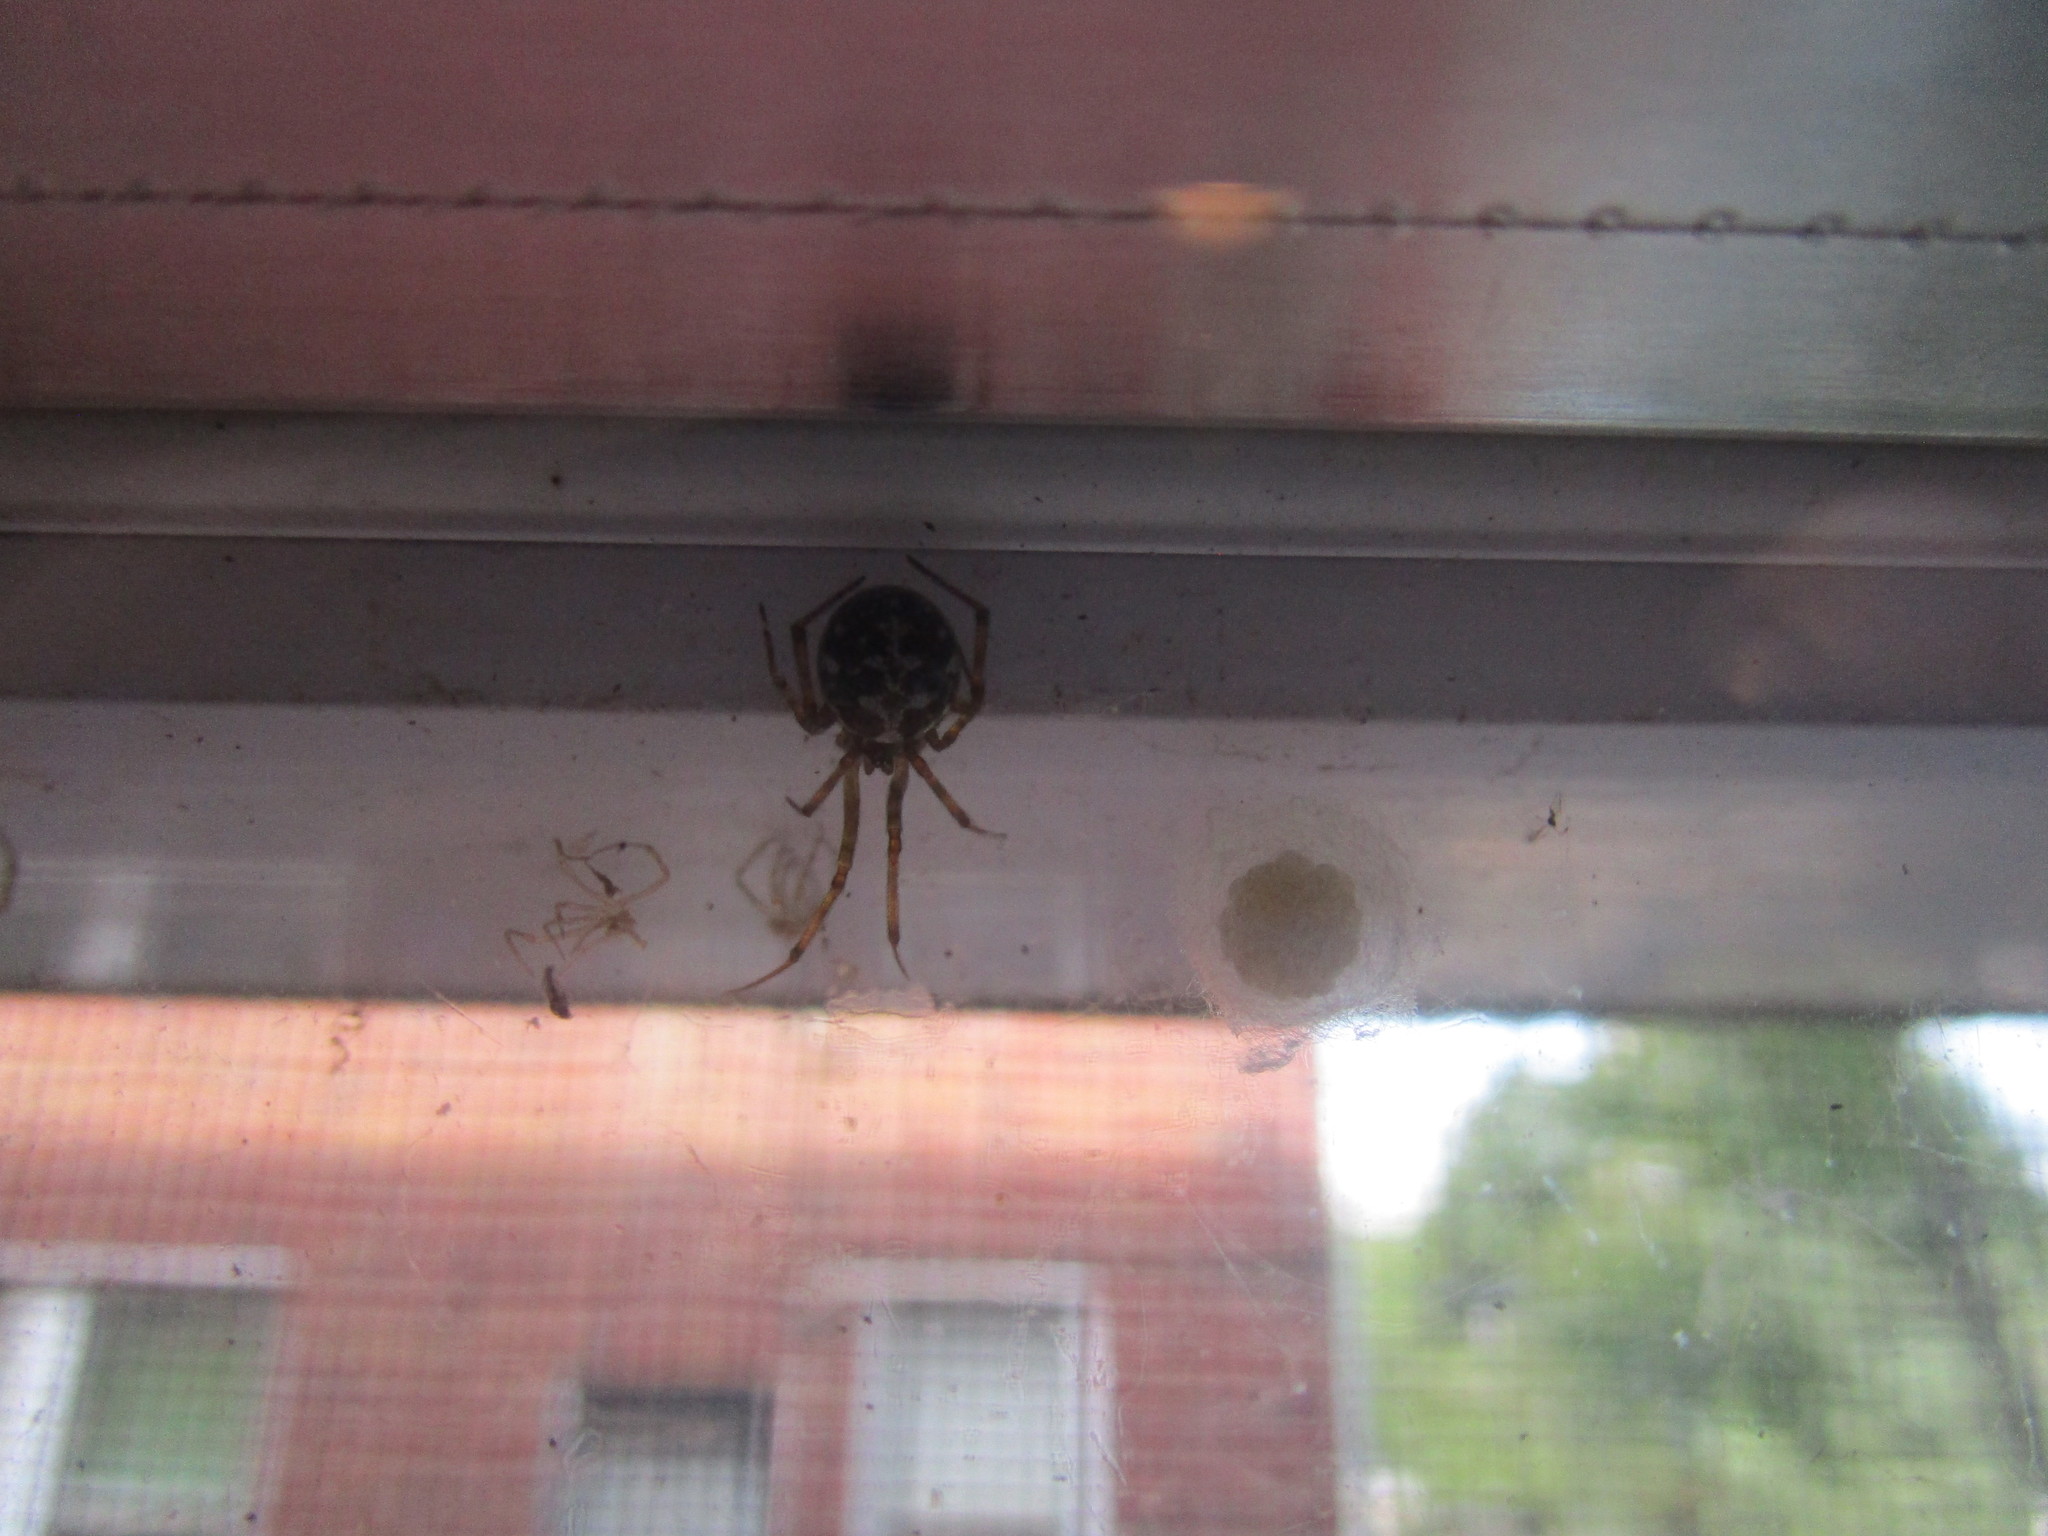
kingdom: Animalia
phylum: Arthropoda
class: Arachnida
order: Araneae
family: Theridiidae
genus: Steatoda
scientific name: Steatoda triangulosa
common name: Triangulate bud spider
